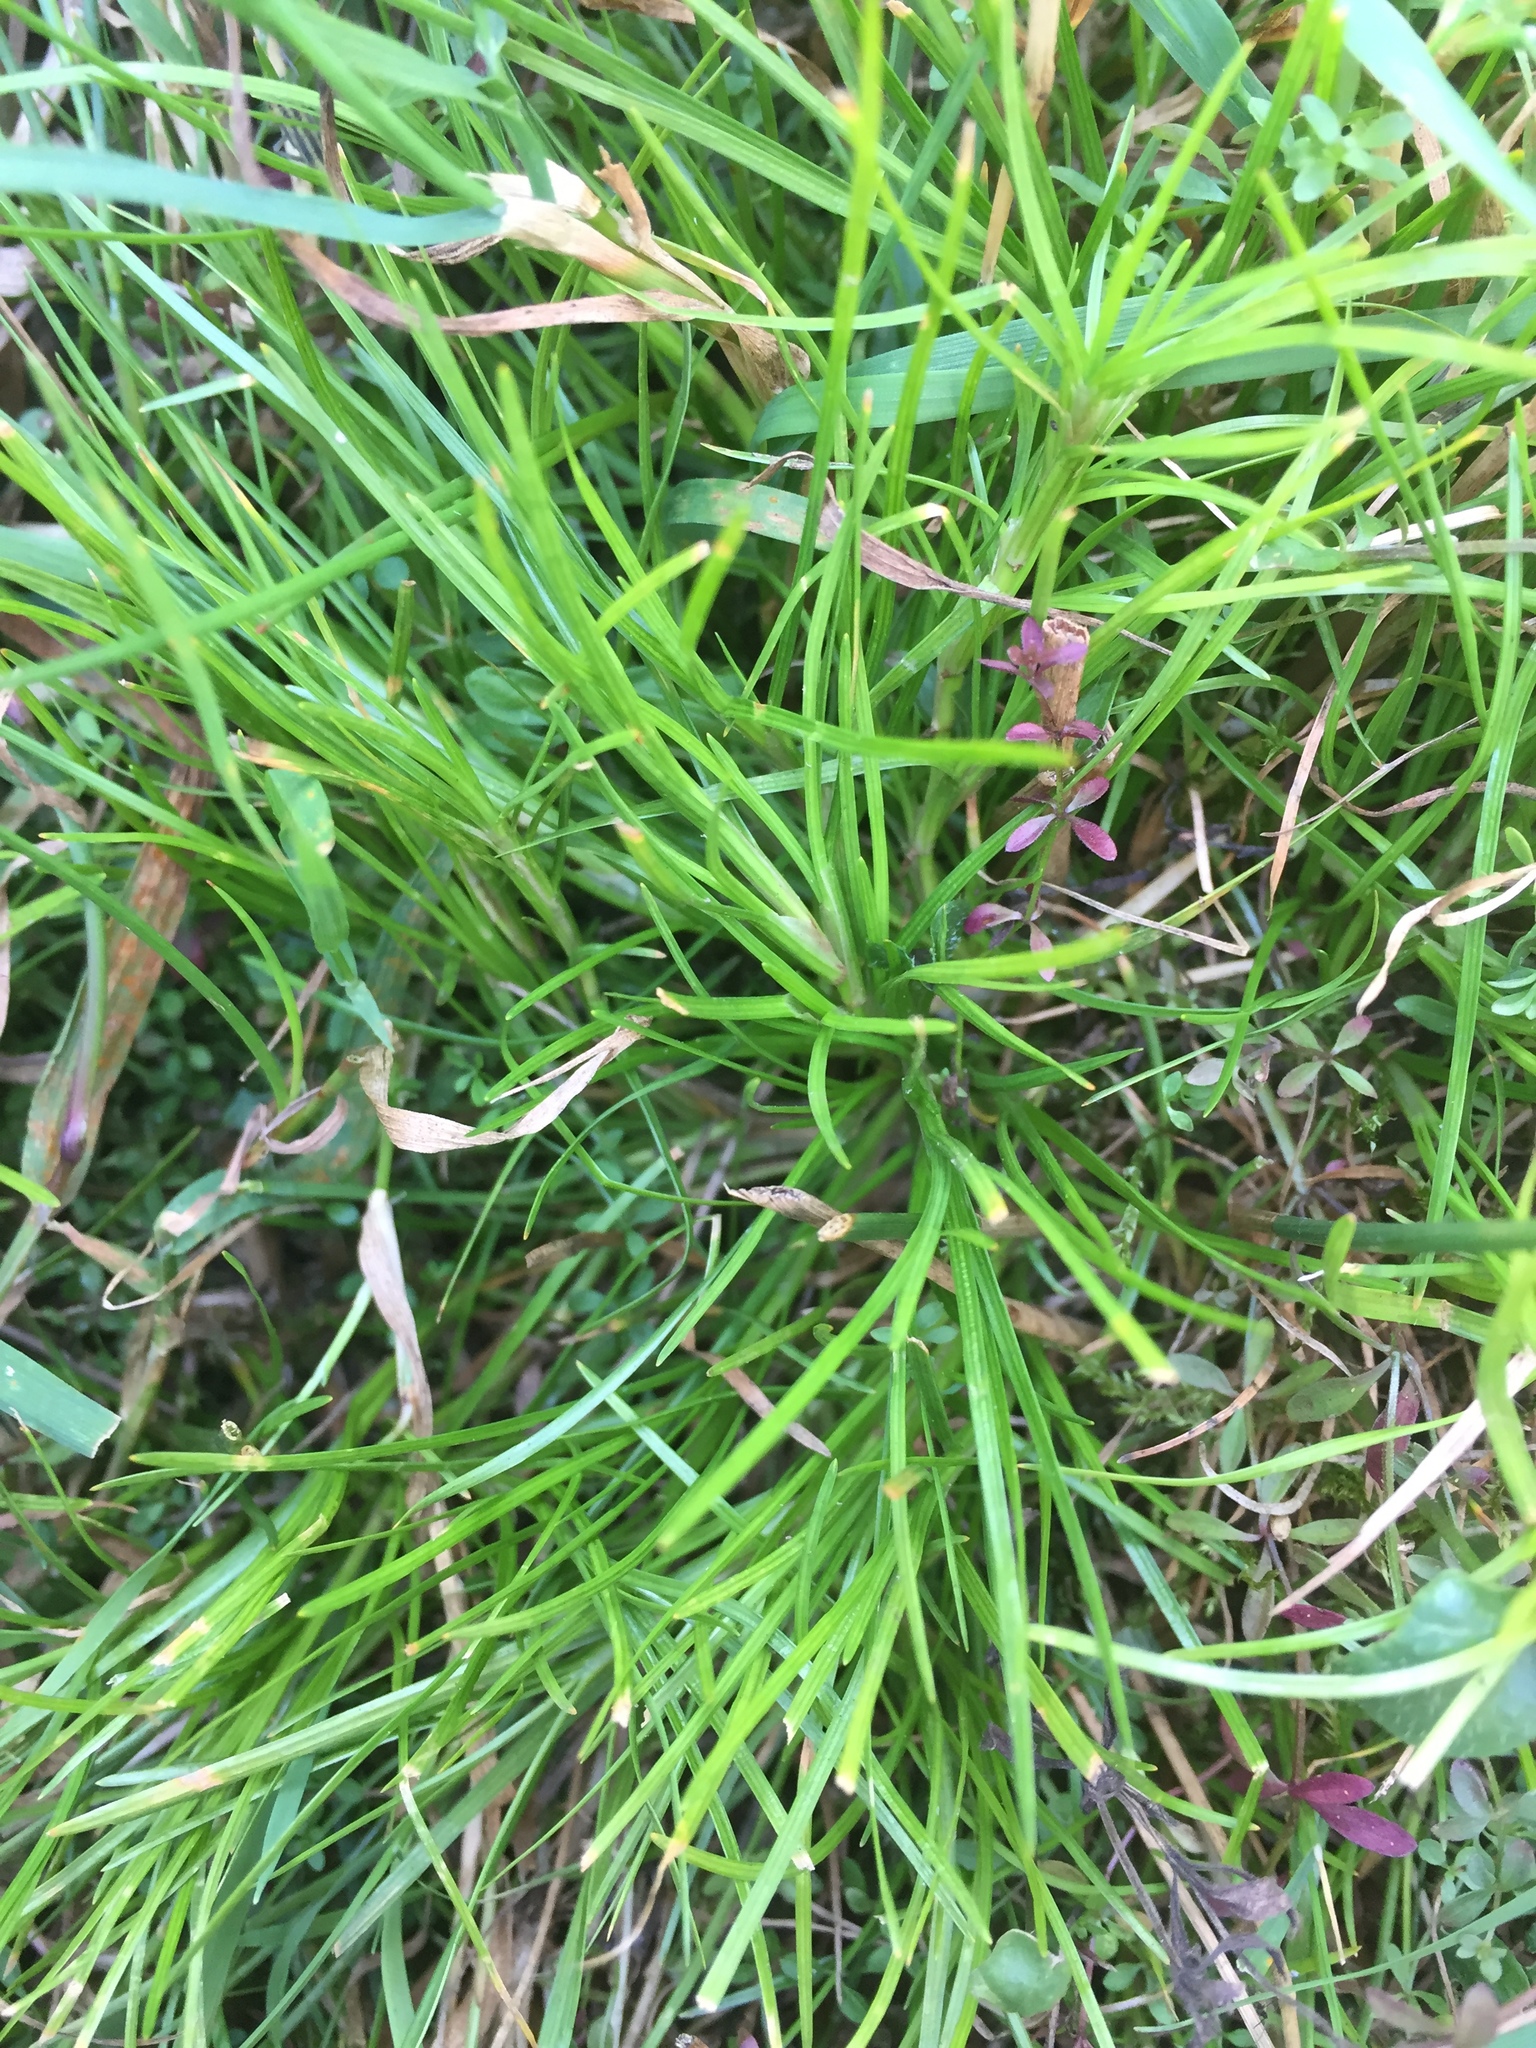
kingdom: Plantae
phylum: Tracheophyta
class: Liliopsida
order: Poales
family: Cyperaceae
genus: Isolepis
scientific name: Isolepis fluitans
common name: Floating club-rush
